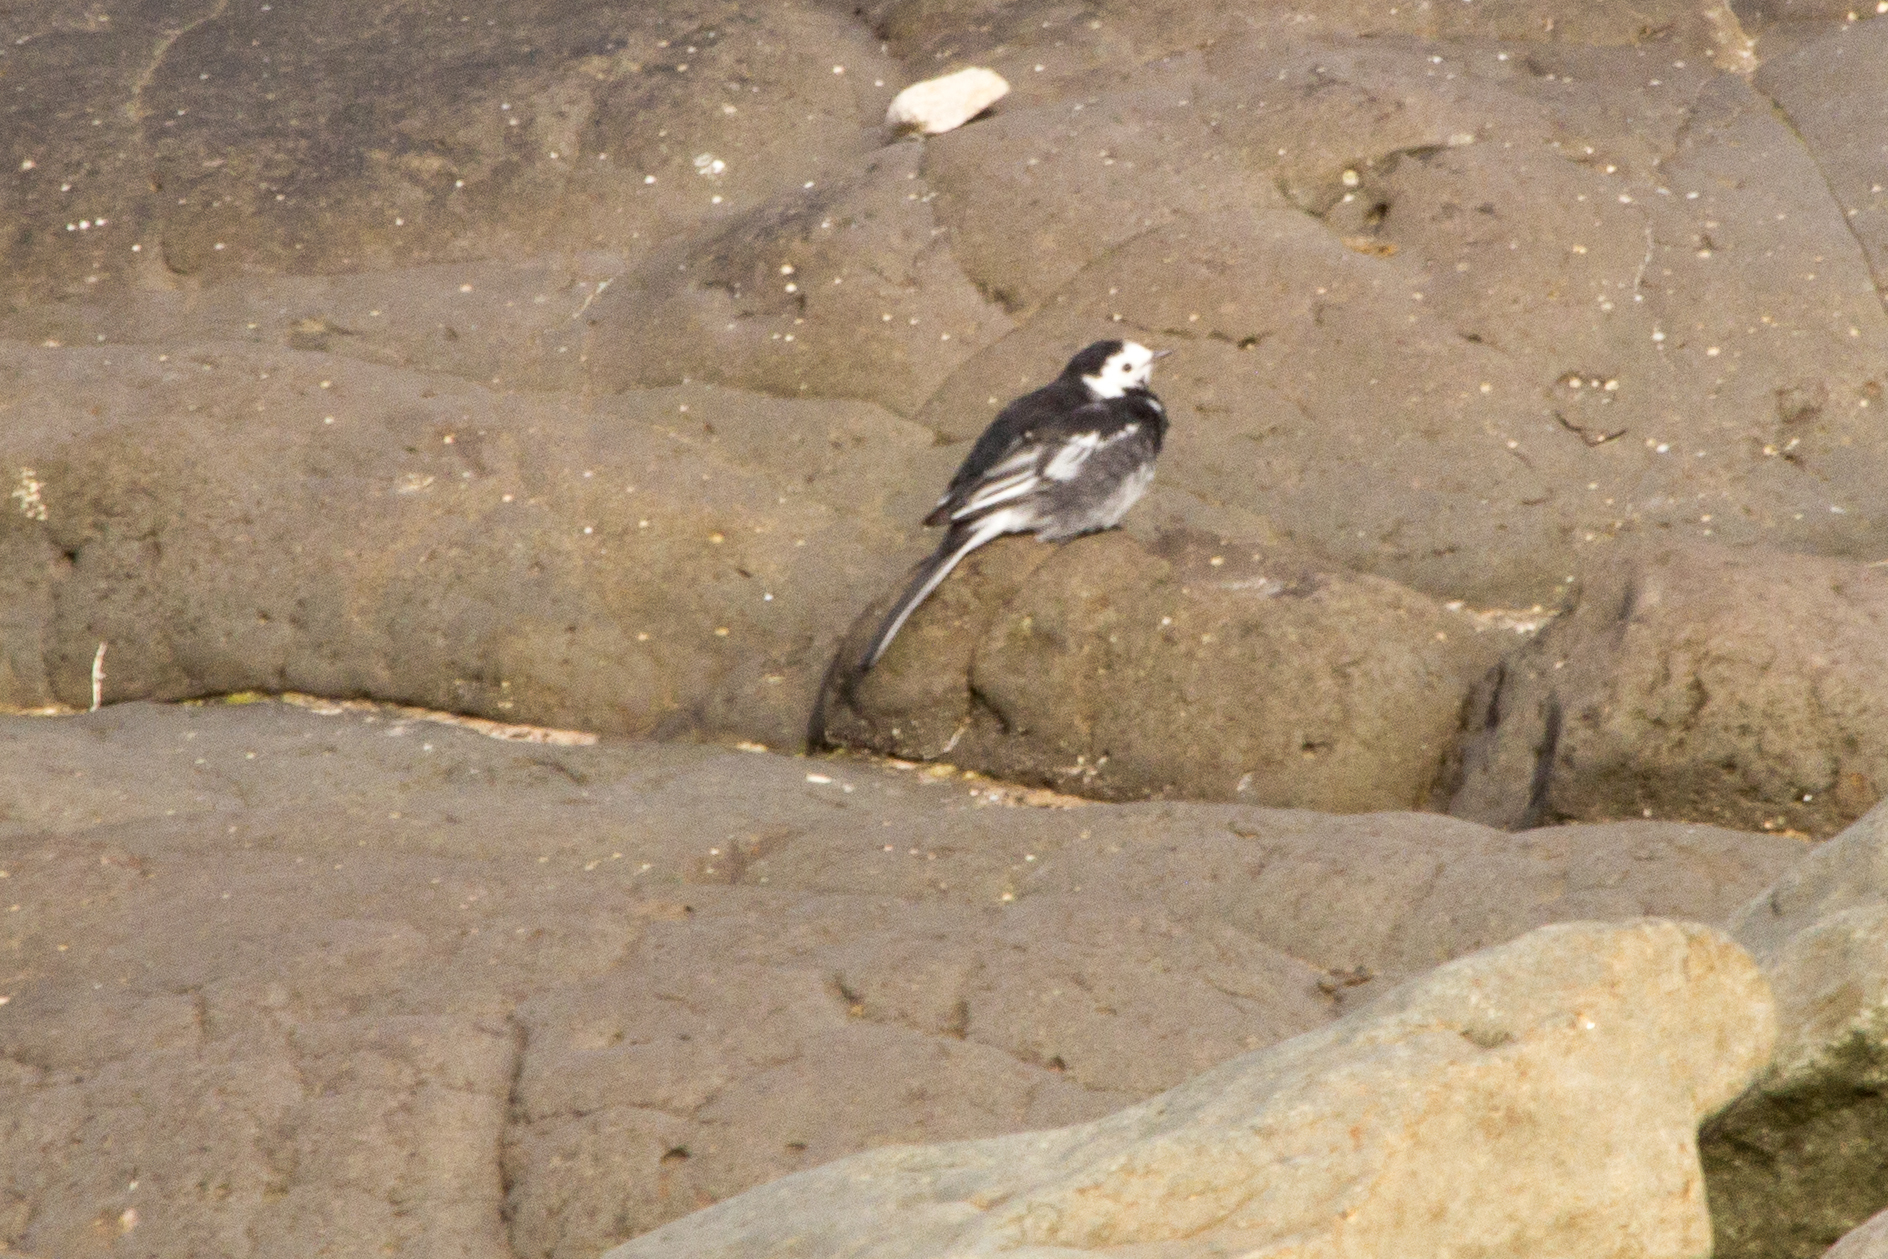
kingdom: Animalia
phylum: Chordata
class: Aves
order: Passeriformes
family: Motacillidae
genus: Motacilla
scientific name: Motacilla alba
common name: White wagtail
